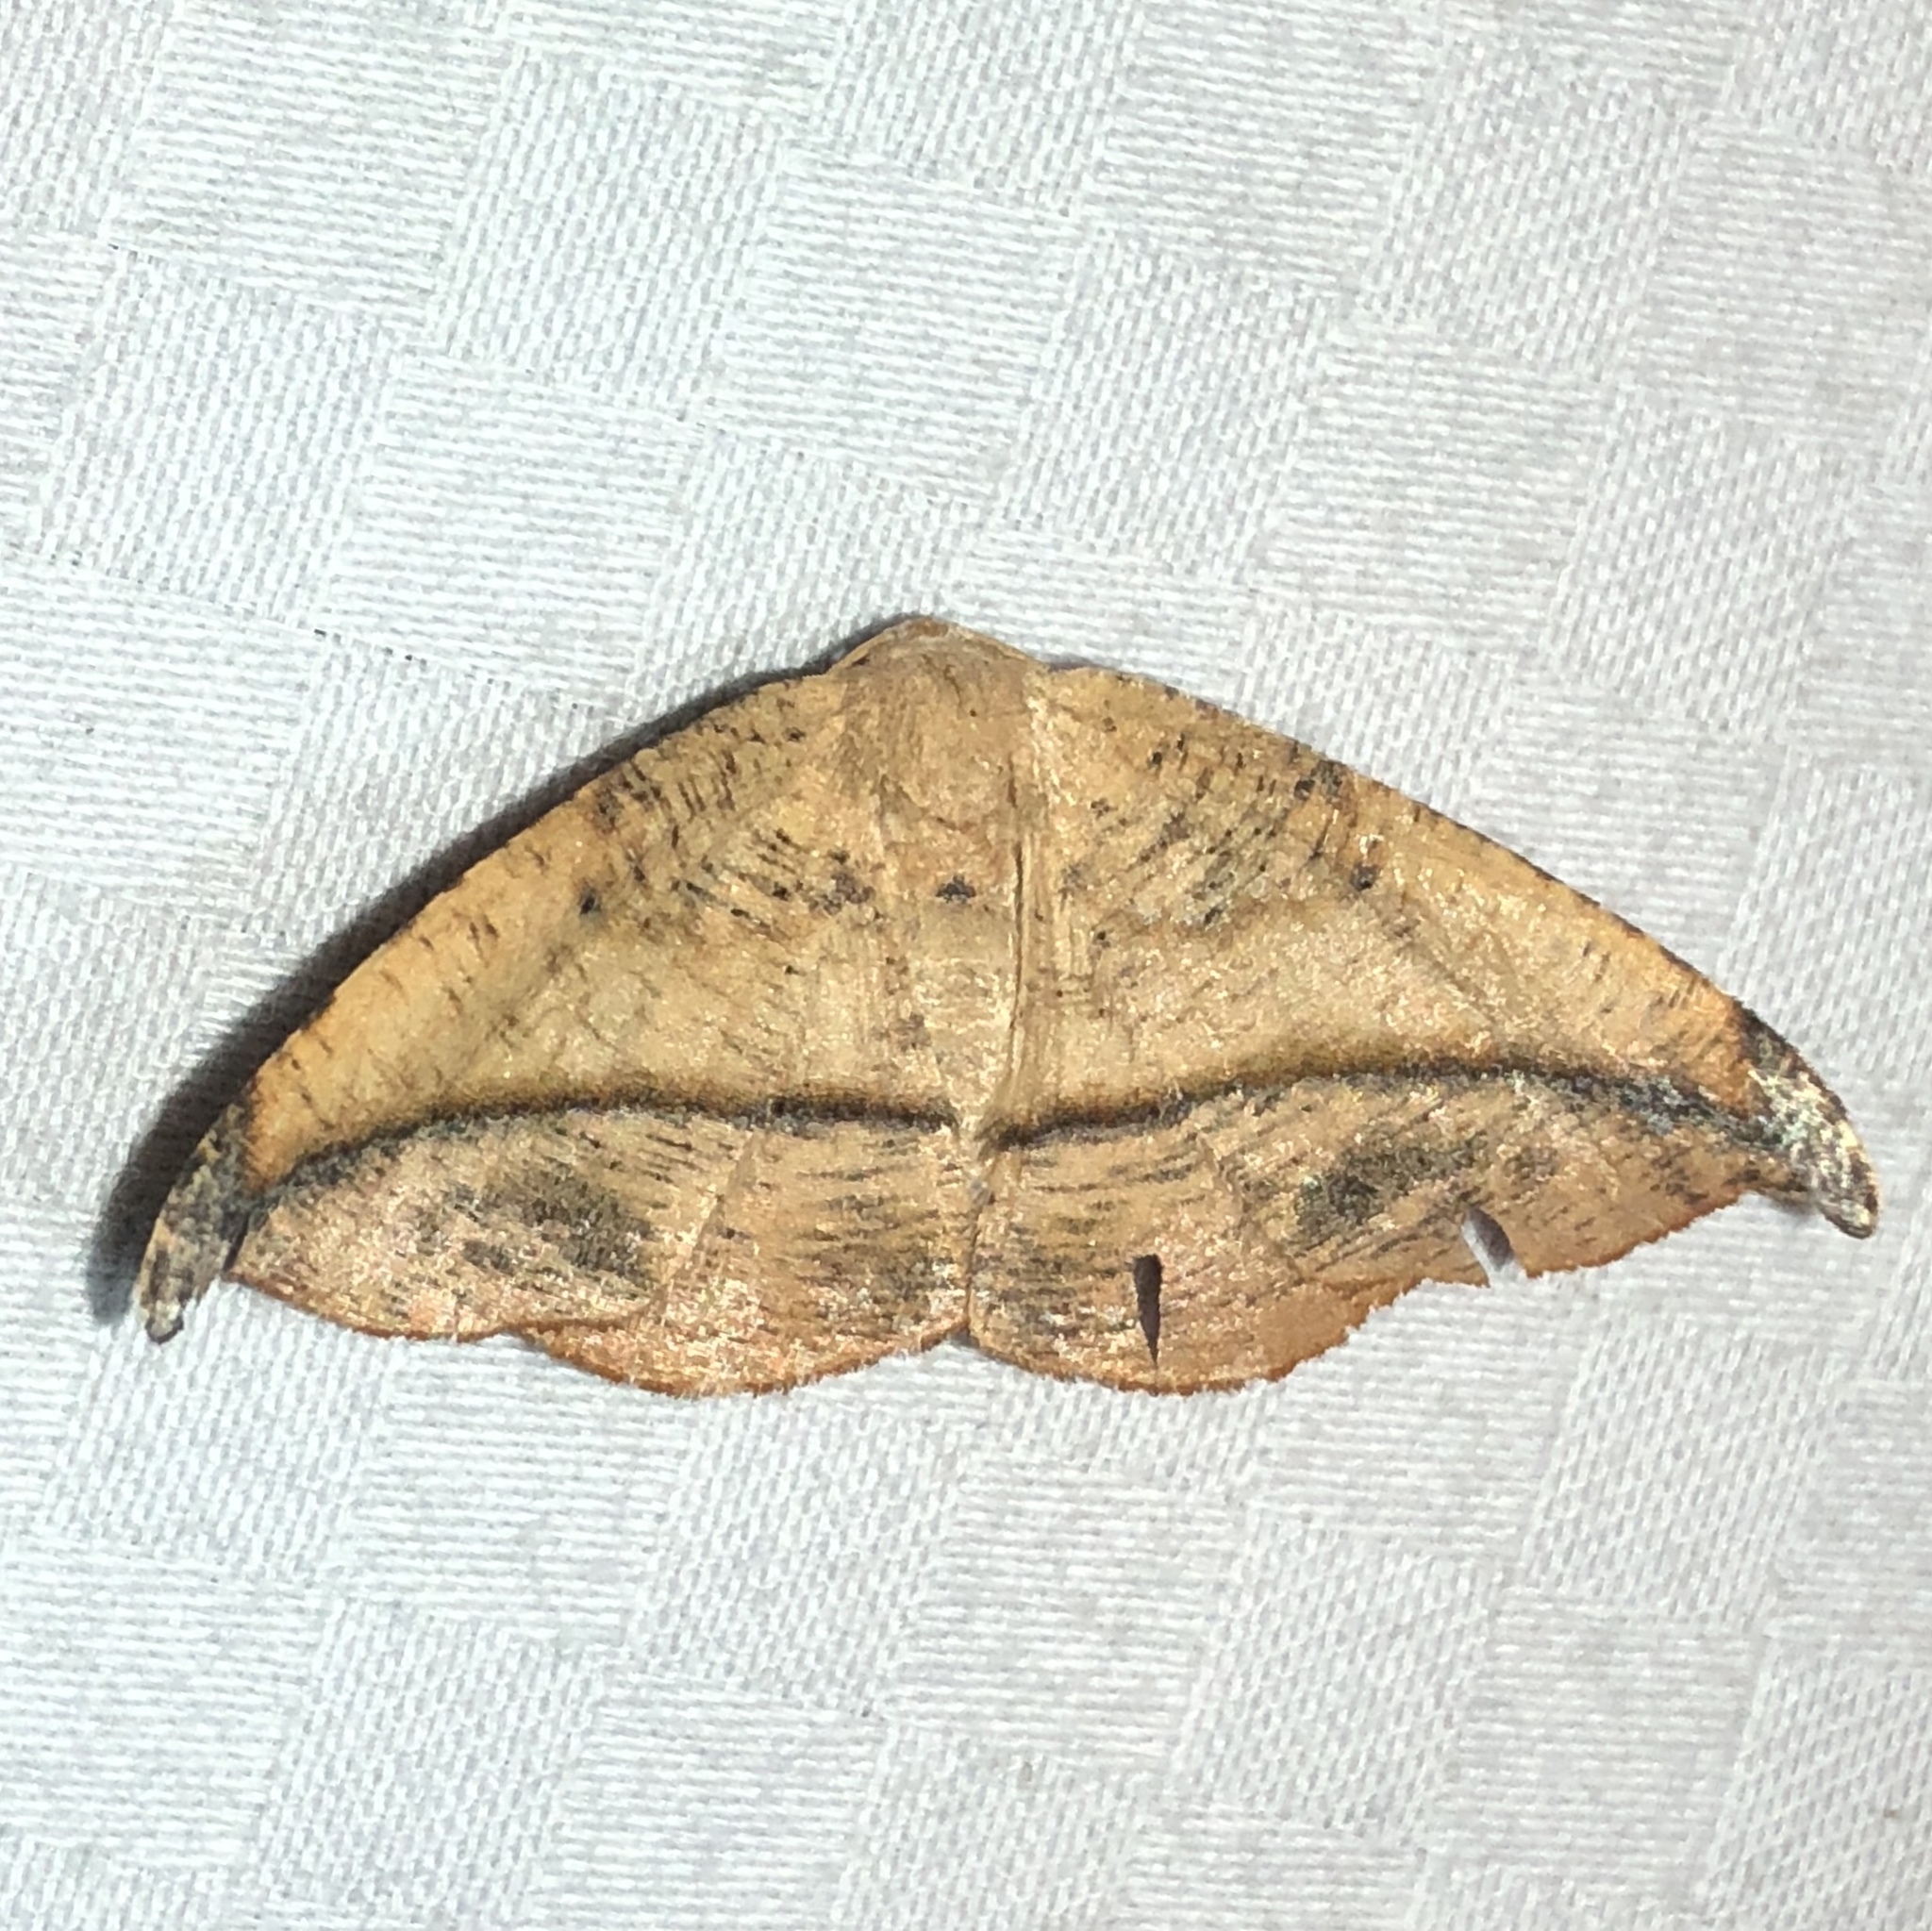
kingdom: Animalia
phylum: Arthropoda
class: Insecta
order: Lepidoptera
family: Geometridae
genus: Patalene
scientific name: Patalene olyzonaria
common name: Juniper geometer moth
